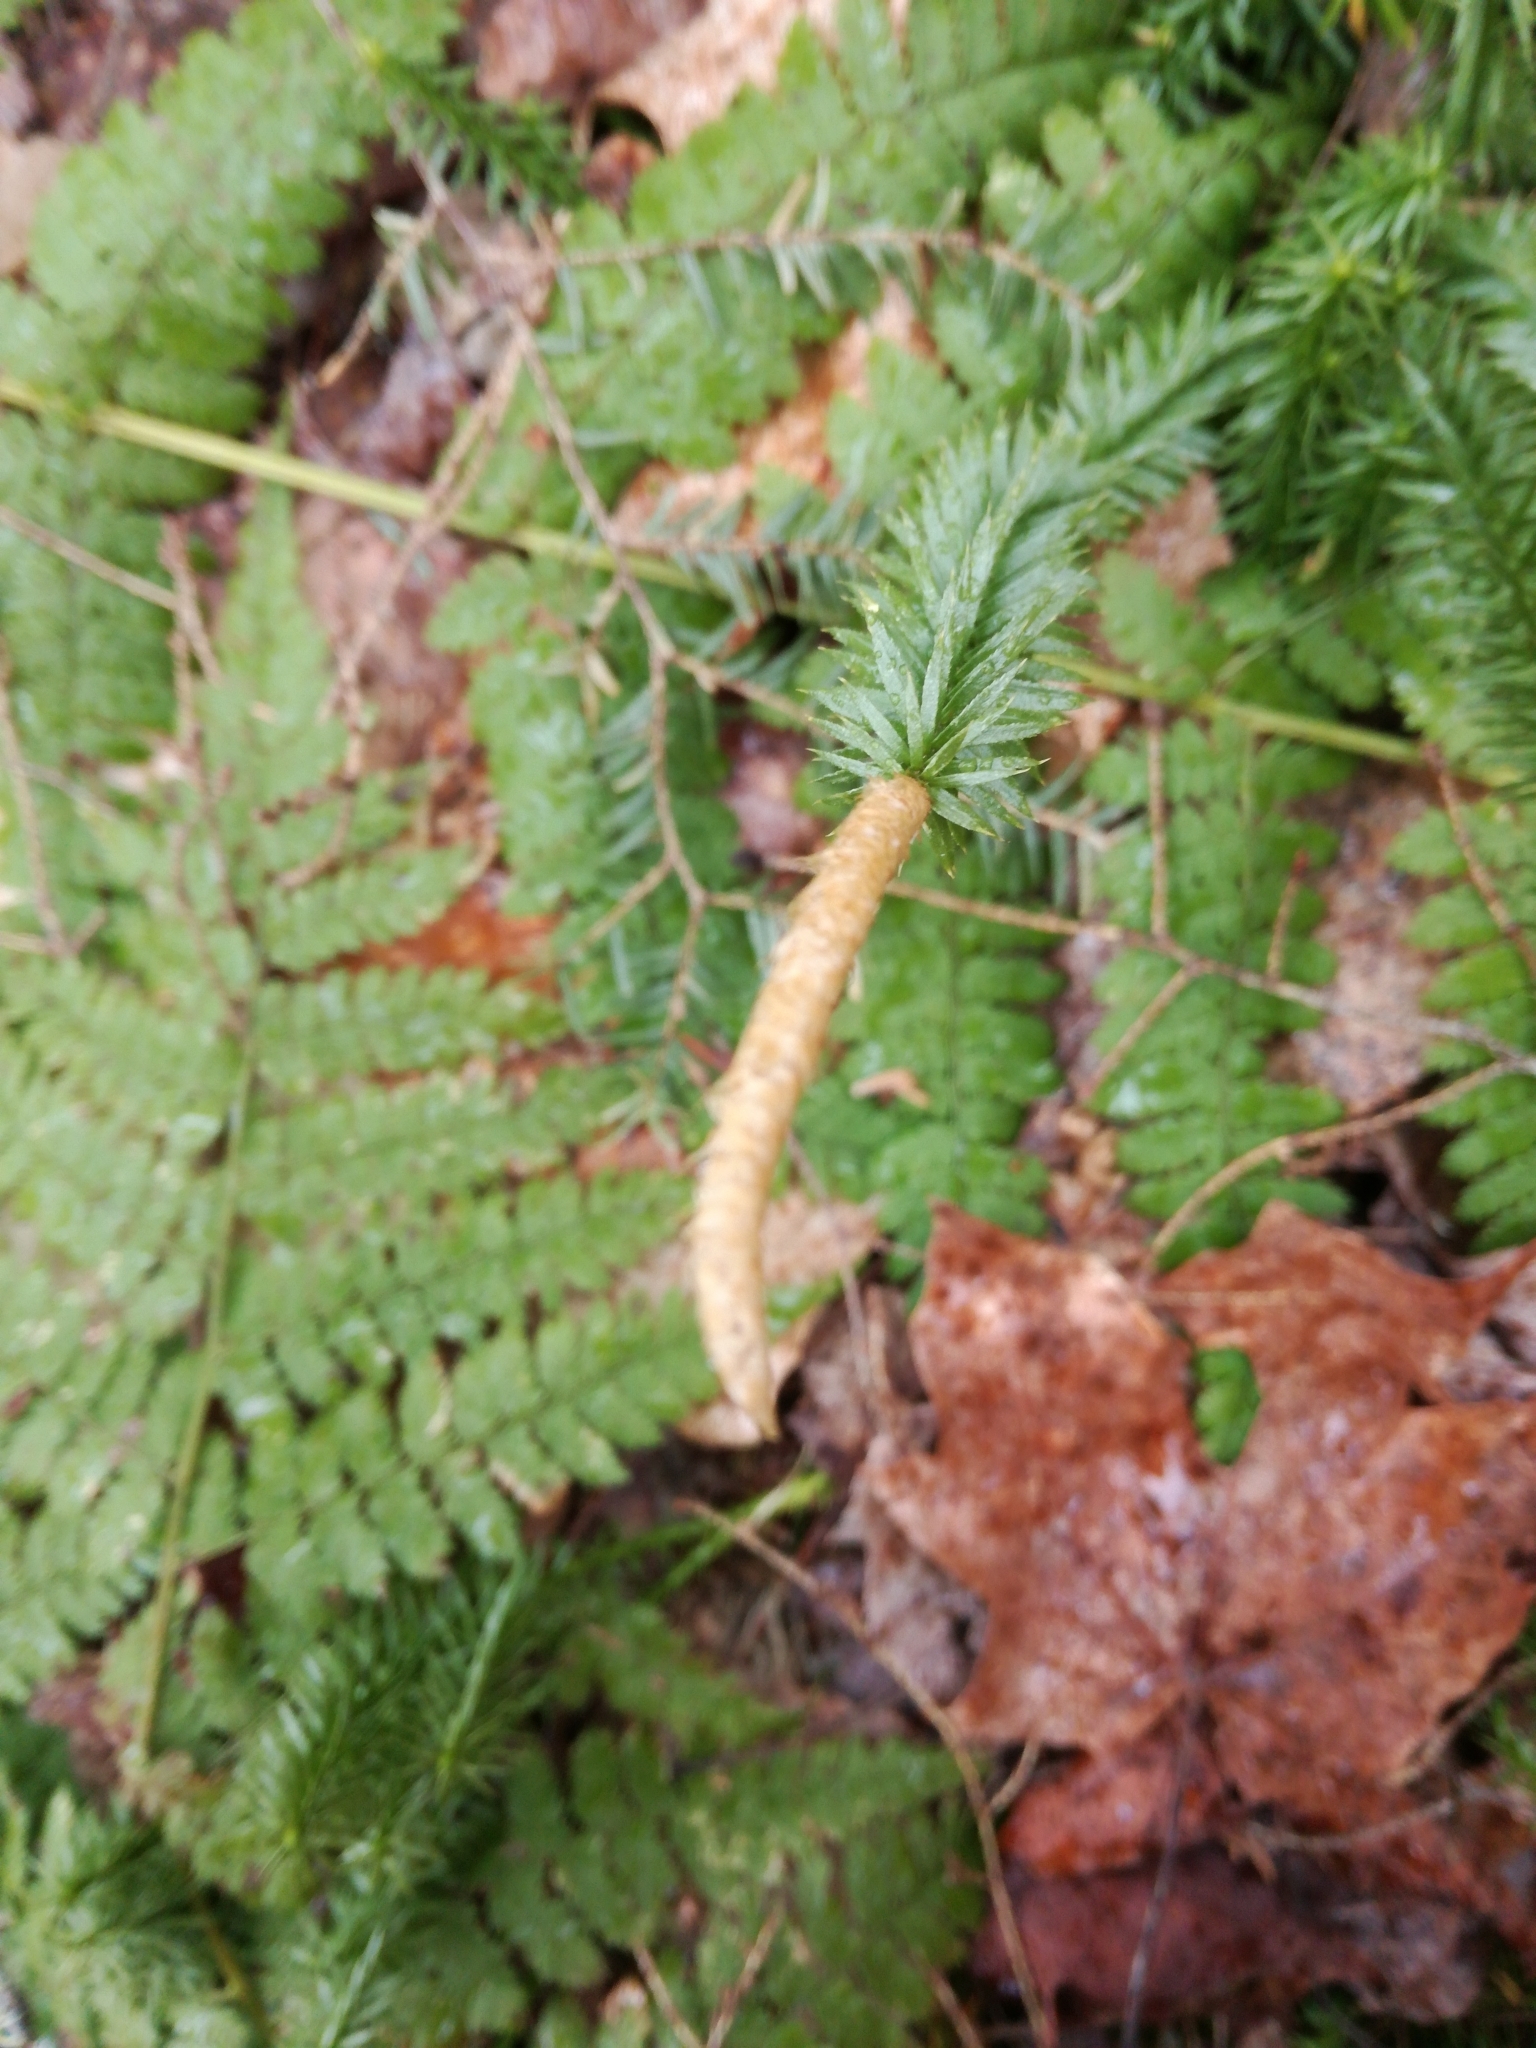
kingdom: Plantae
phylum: Tracheophyta
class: Lycopodiopsida
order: Lycopodiales
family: Lycopodiaceae
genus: Spinulum
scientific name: Spinulum annotinum
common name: Interrupted club-moss
